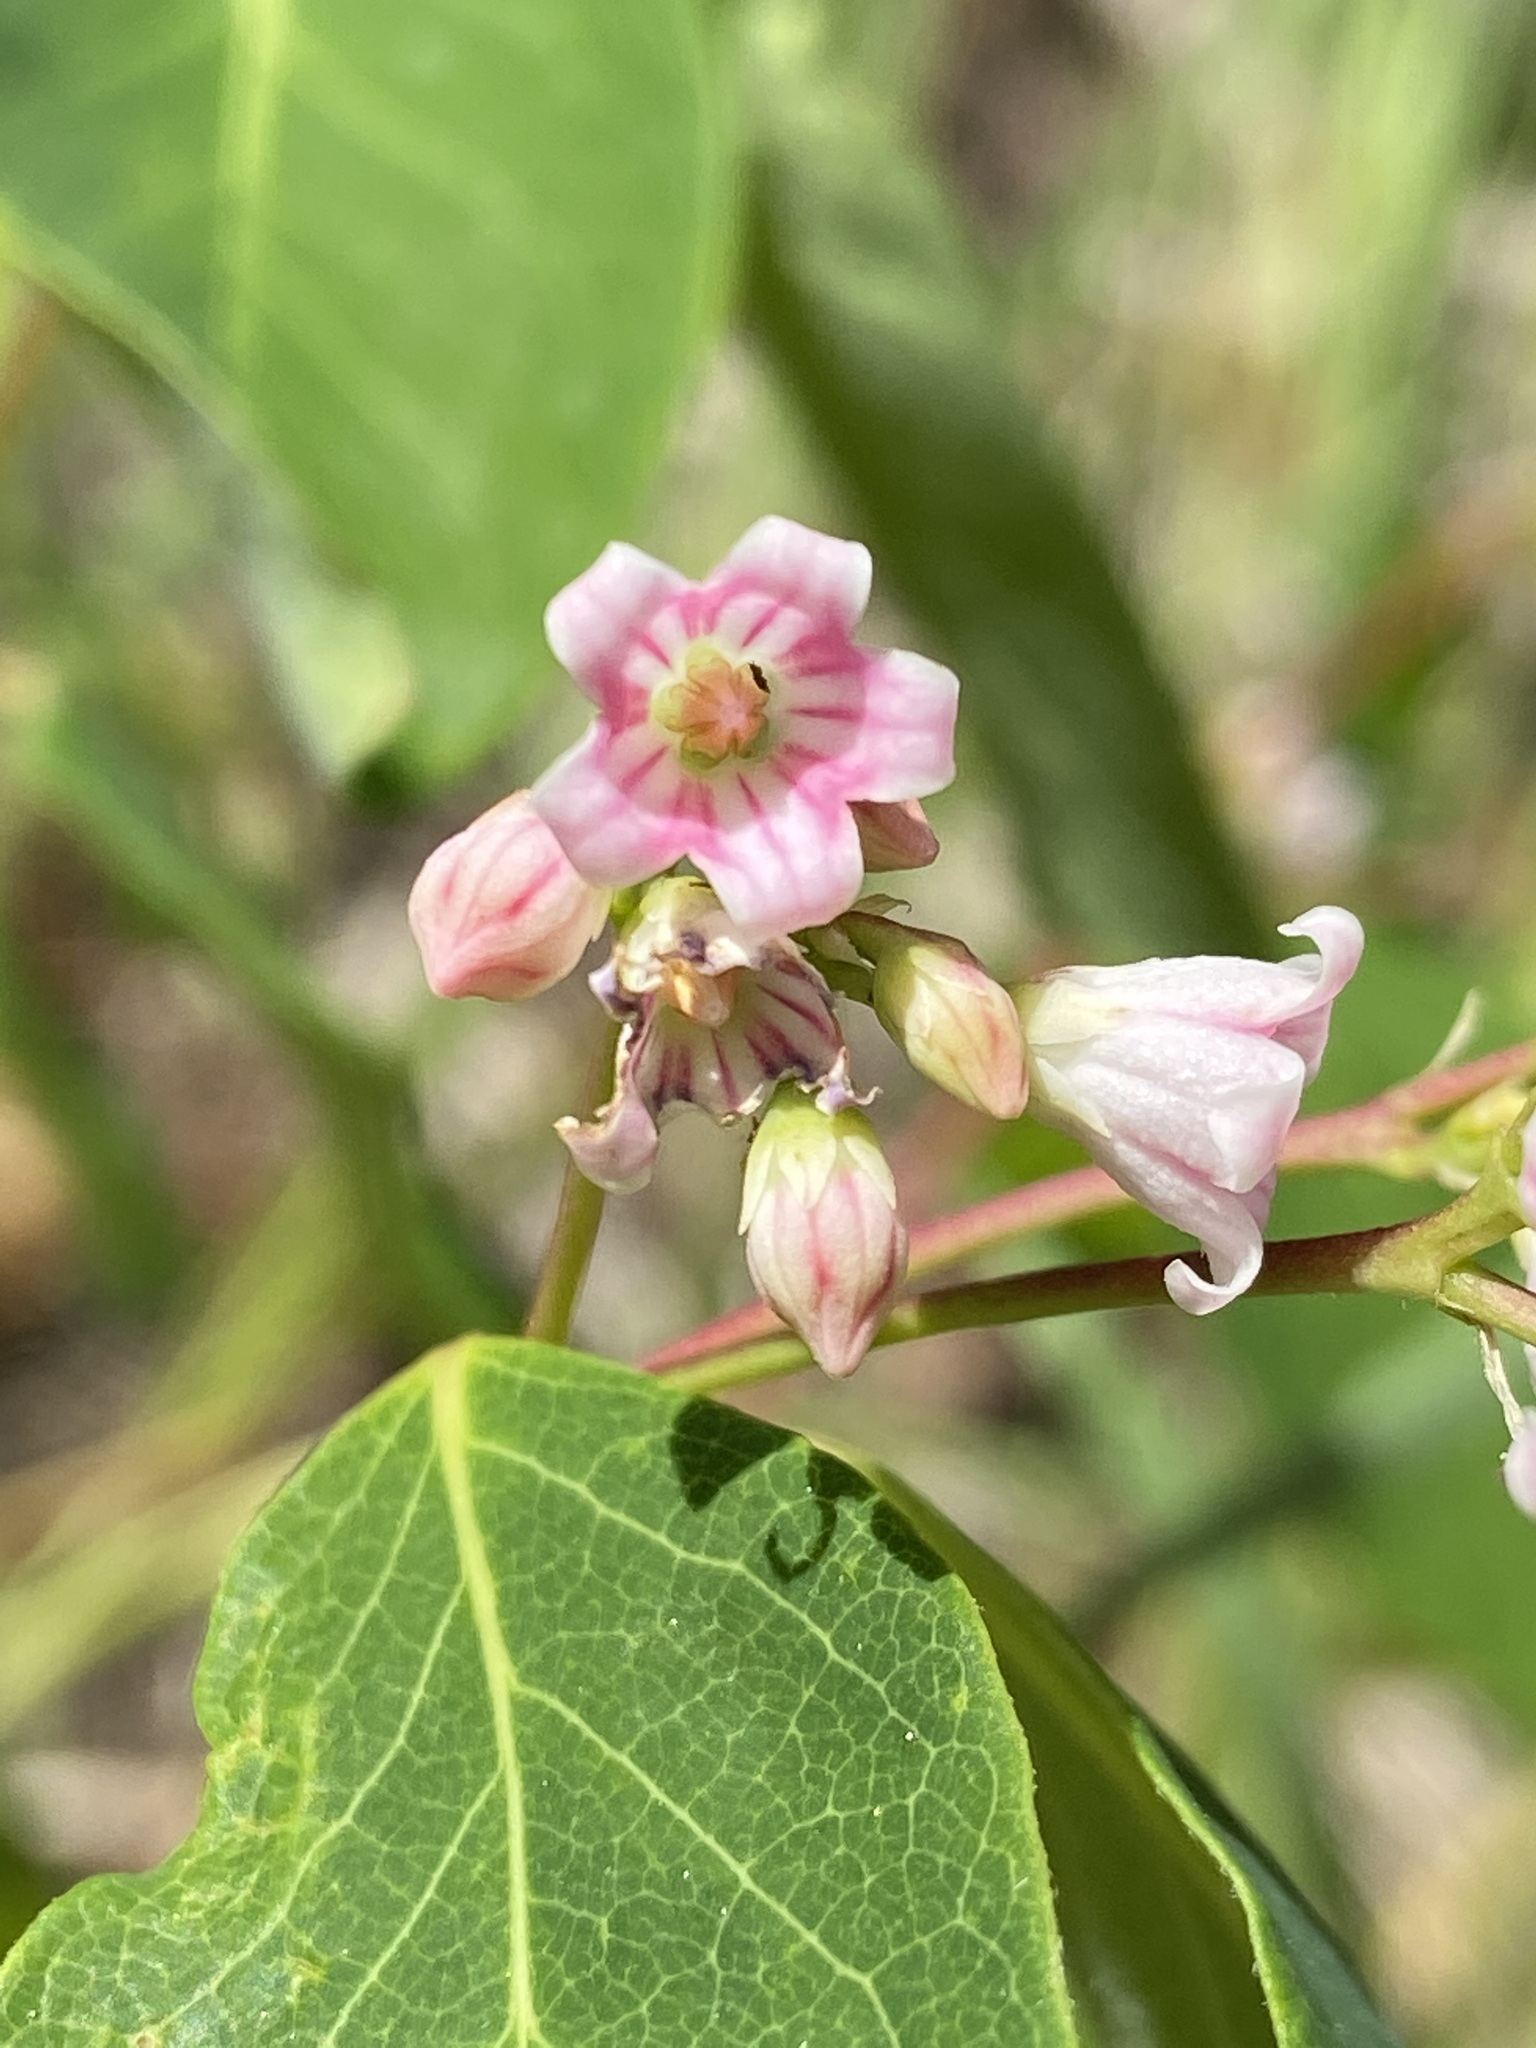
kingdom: Plantae
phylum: Tracheophyta
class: Magnoliopsida
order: Gentianales
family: Apocynaceae
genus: Apocynum
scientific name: Apocynum androsaemifolium
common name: Spreading dogbane
